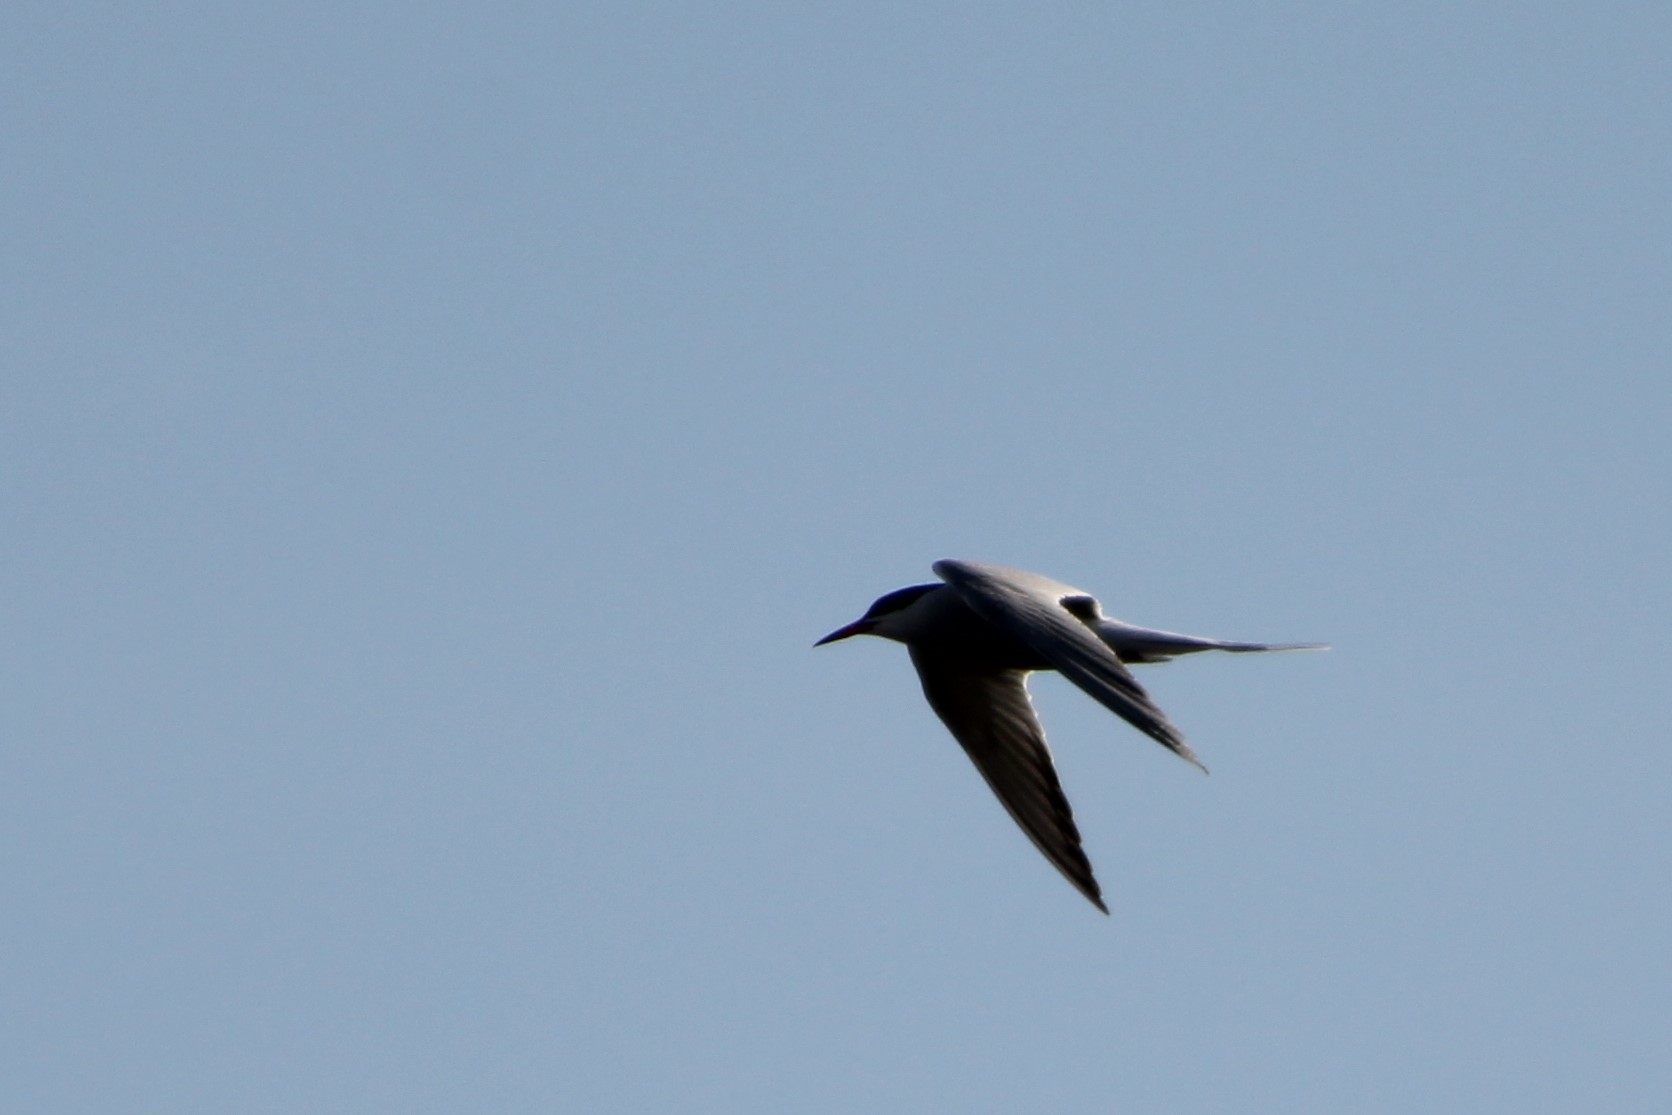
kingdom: Animalia
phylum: Chordata
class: Aves
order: Charadriiformes
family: Laridae
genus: Sterna
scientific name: Sterna hirundo
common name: Common tern
